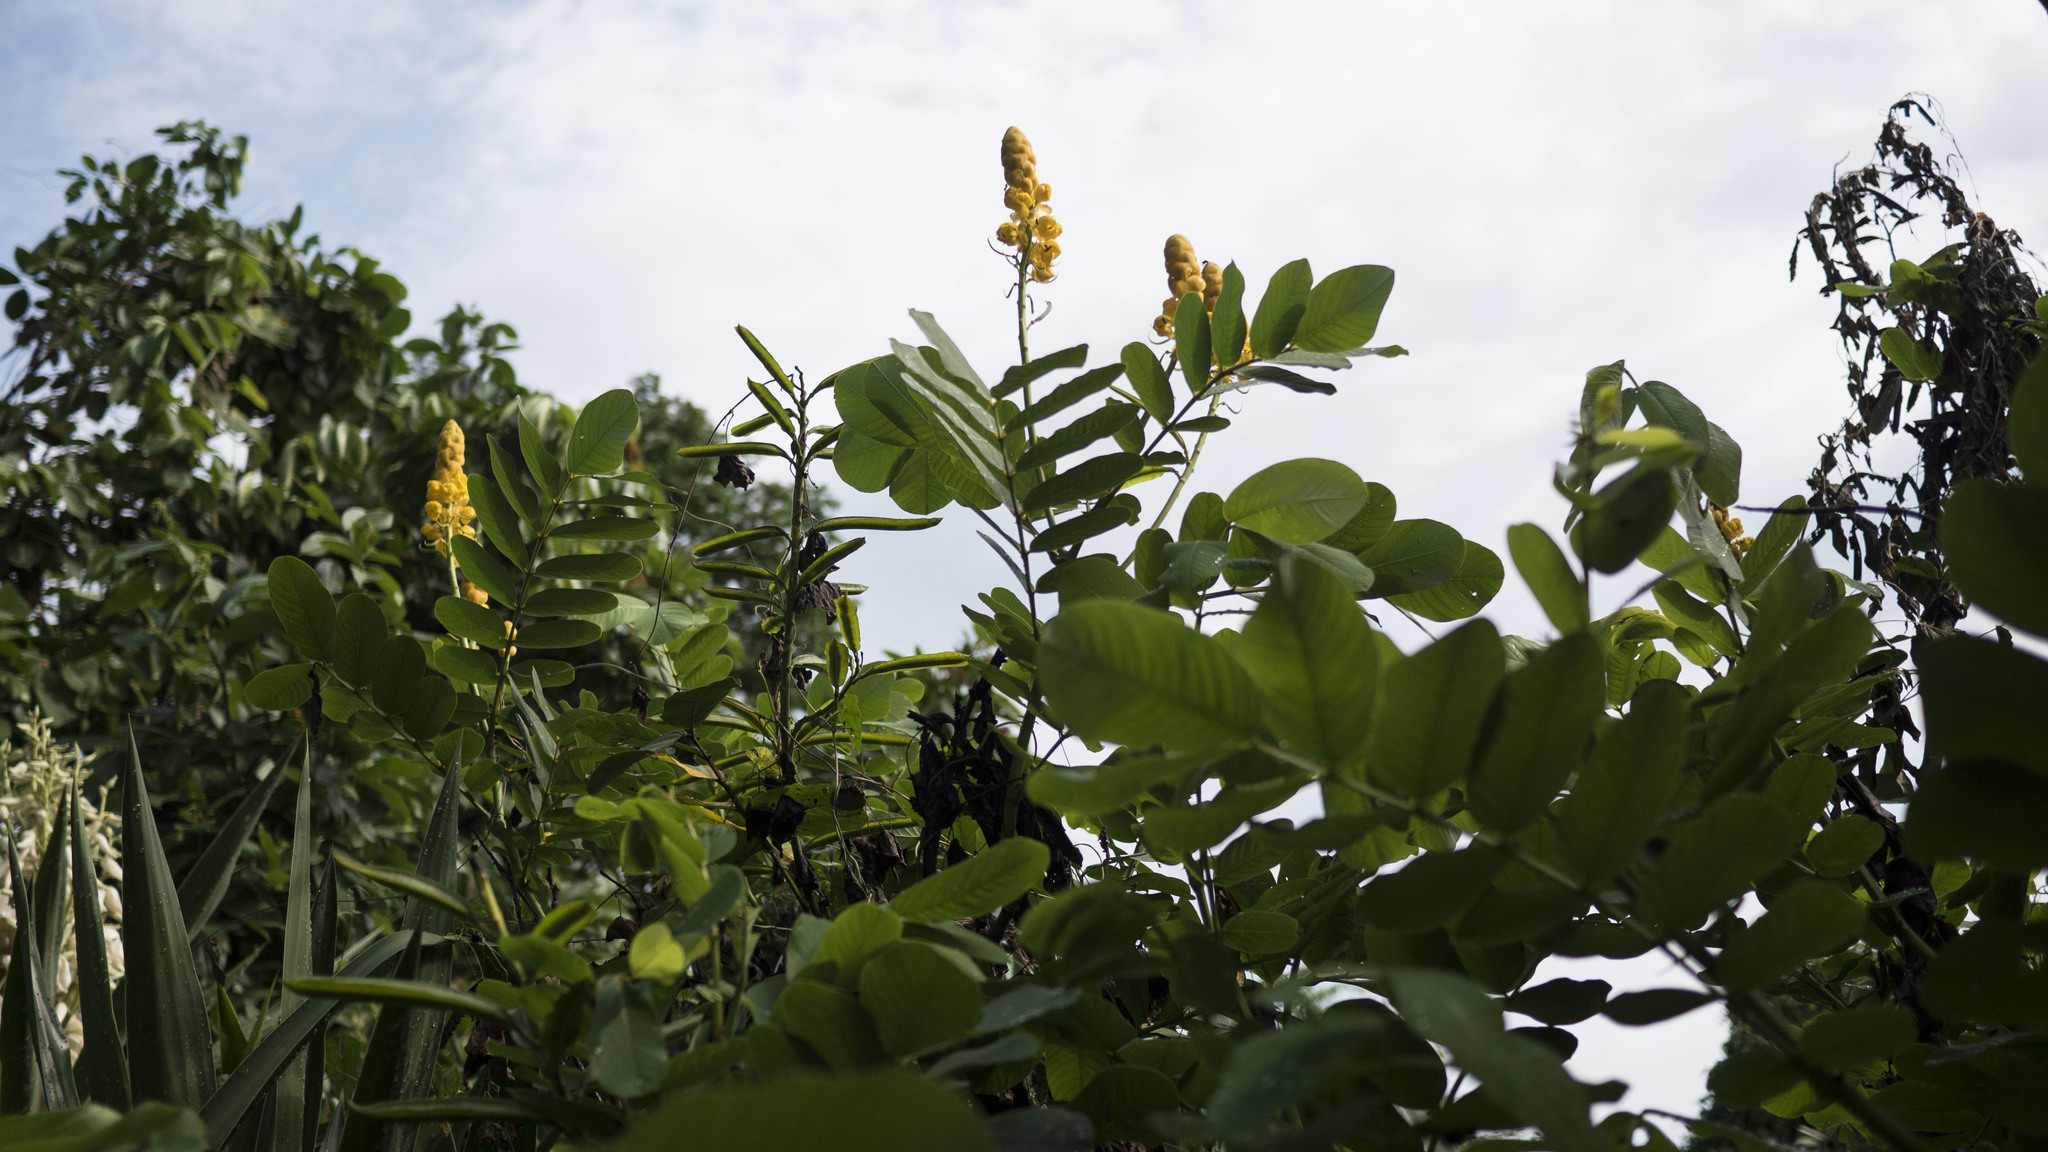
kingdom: Plantae
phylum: Tracheophyta
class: Magnoliopsida
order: Fabales
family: Fabaceae
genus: Senna
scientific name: Senna alata
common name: Emperor's candlesticks
